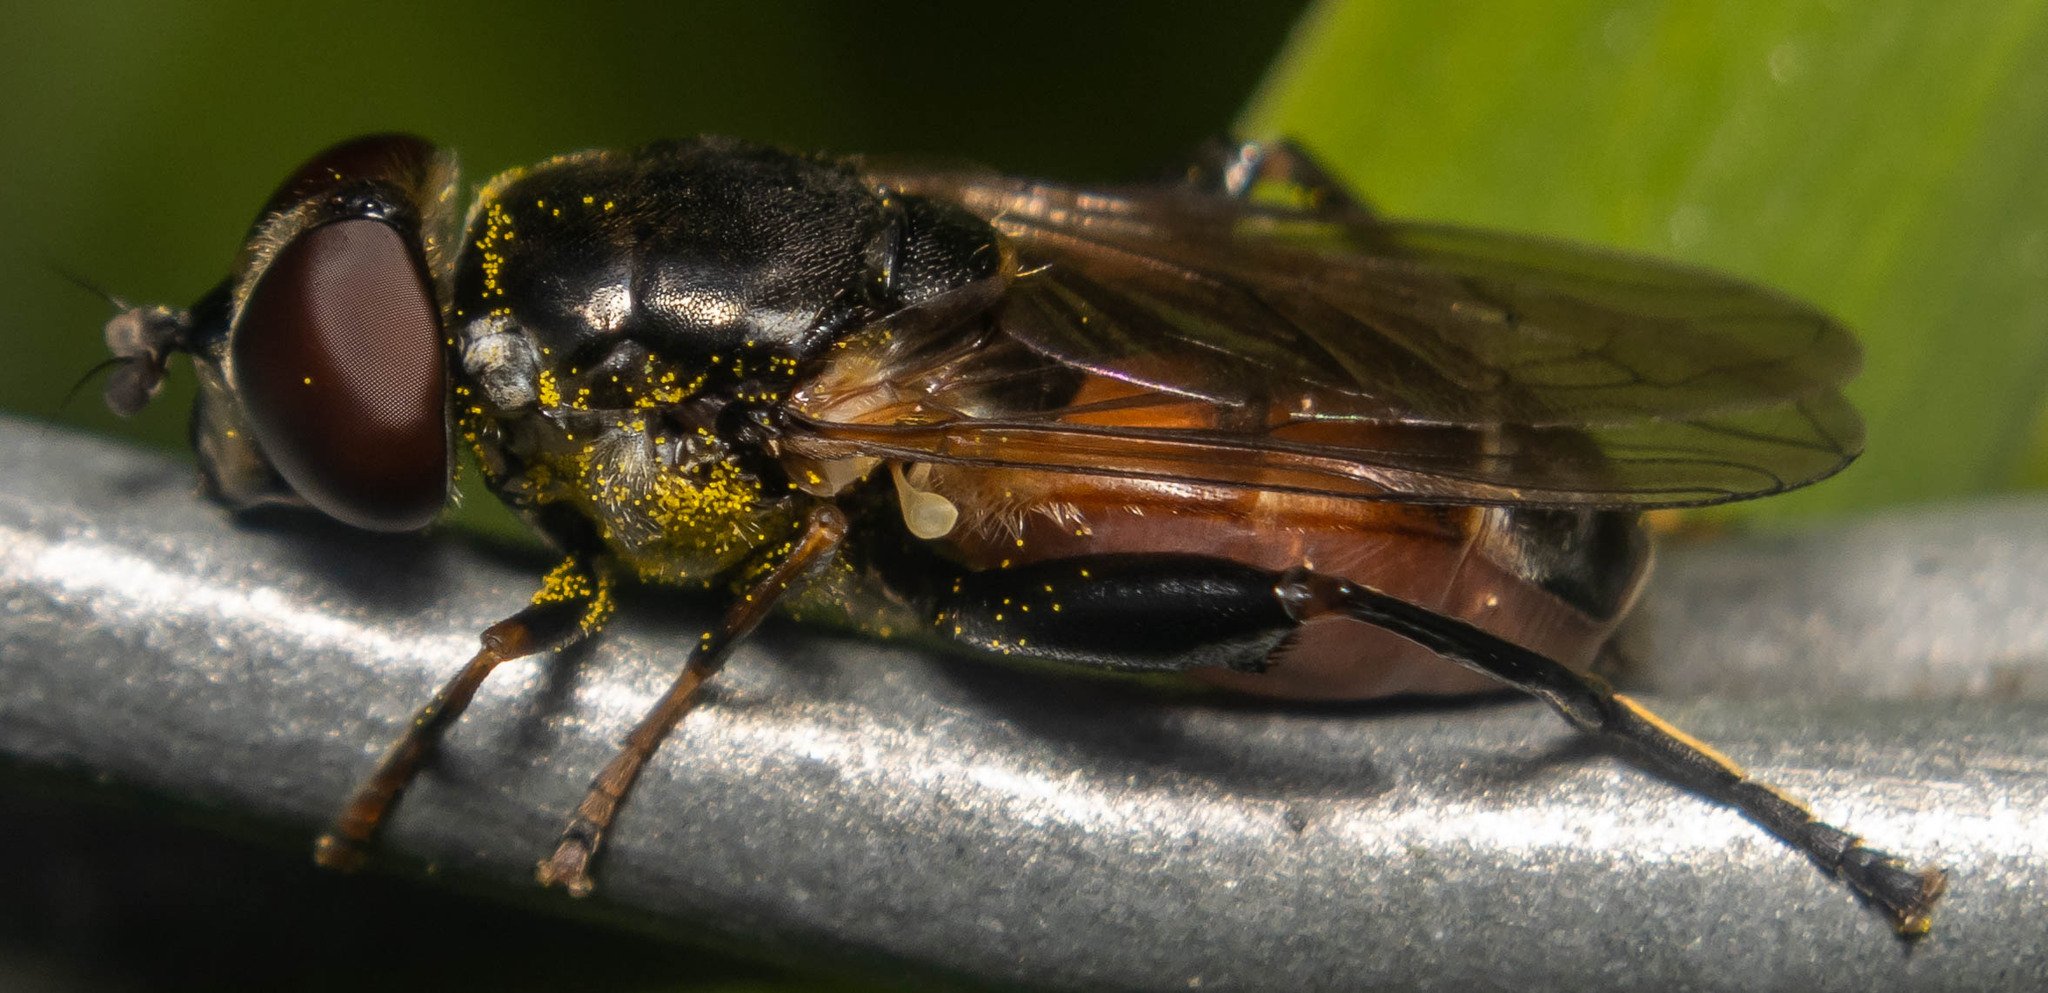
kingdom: Animalia
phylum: Arthropoda
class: Insecta
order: Diptera
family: Syrphidae
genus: Tropidia
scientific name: Tropidia scita
